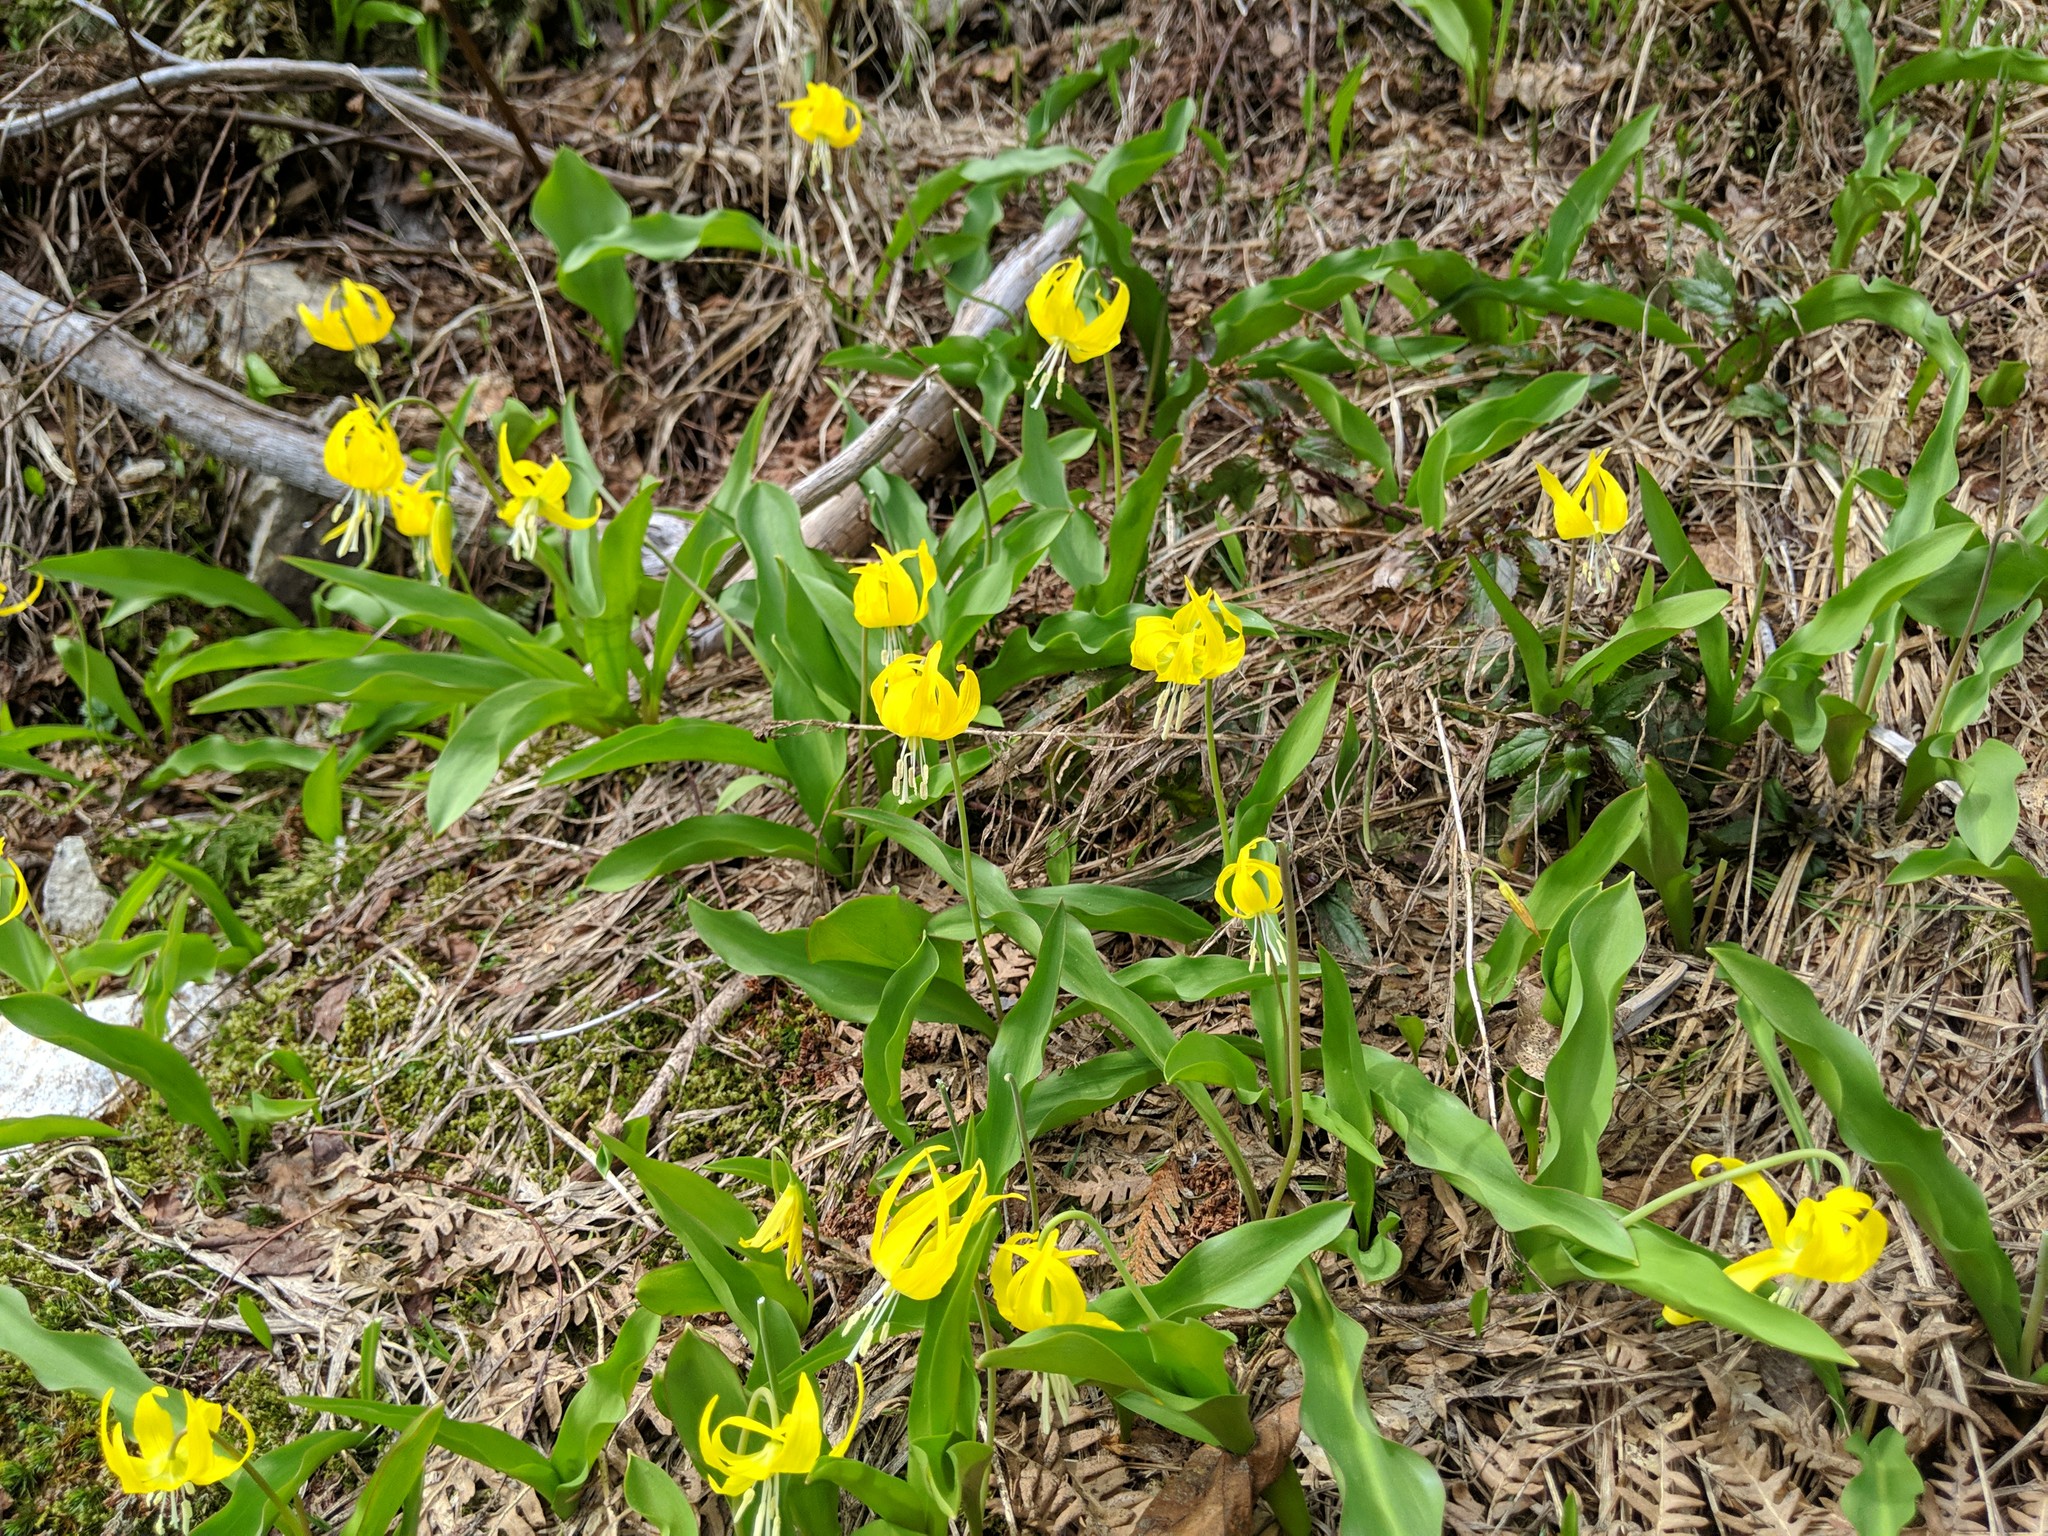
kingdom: Plantae
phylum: Tracheophyta
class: Liliopsida
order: Liliales
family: Liliaceae
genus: Erythronium
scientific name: Erythronium grandiflorum
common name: Avalanche-lily
